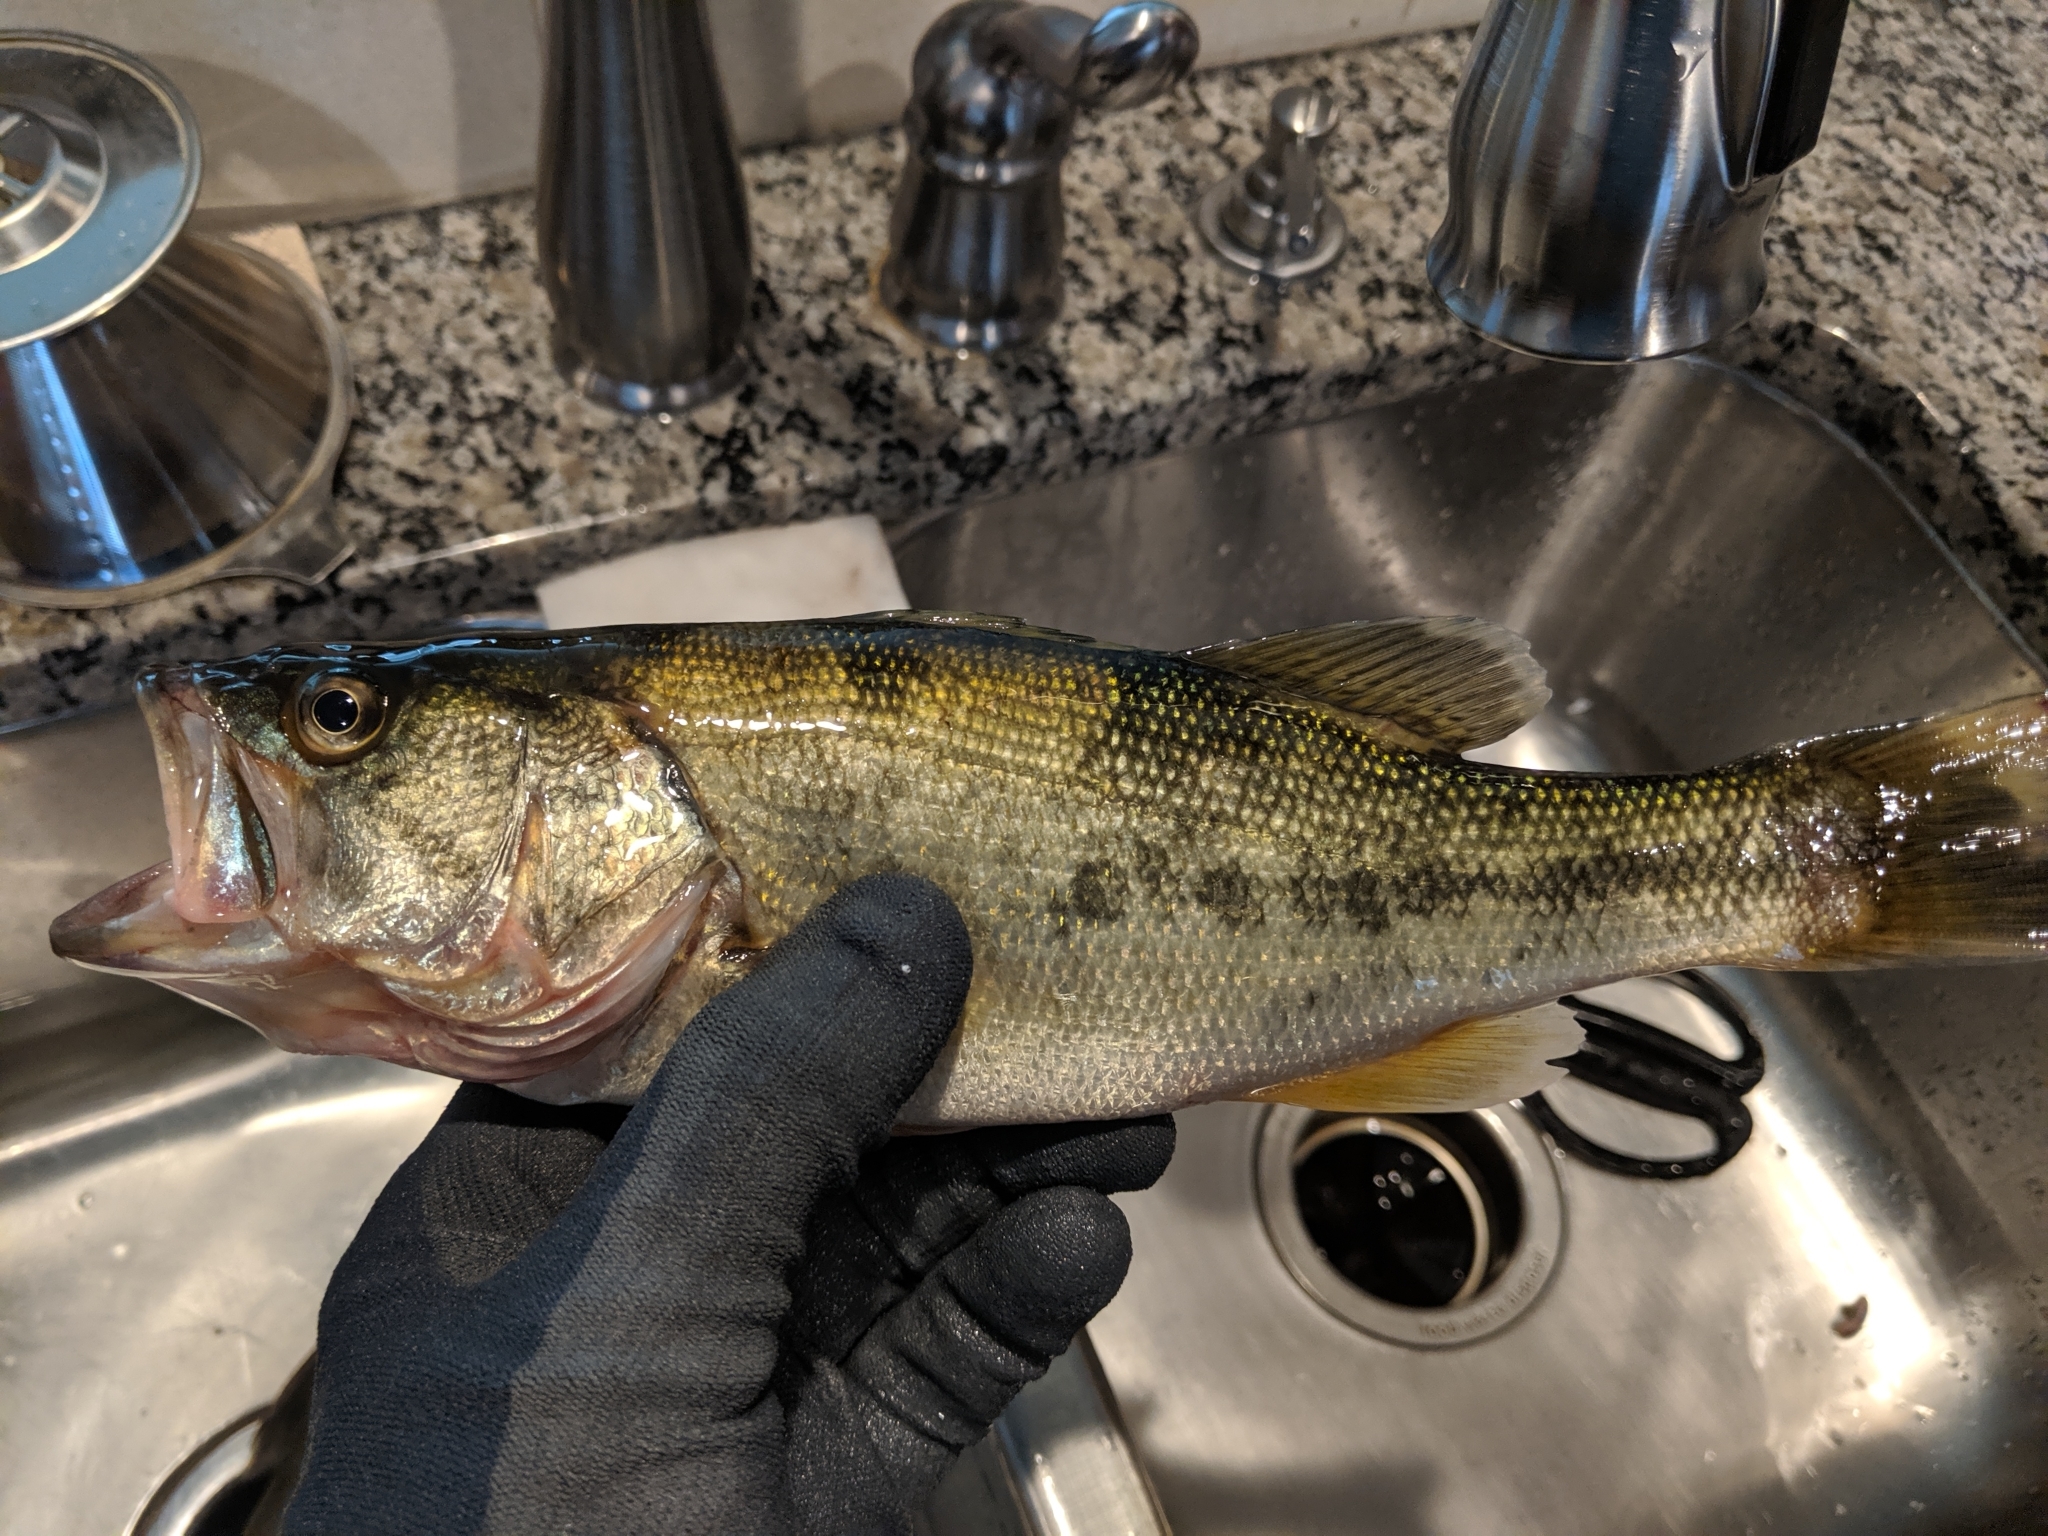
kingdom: Animalia
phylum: Chordata
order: Perciformes
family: Centrarchidae
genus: Micropterus
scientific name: Micropterus
